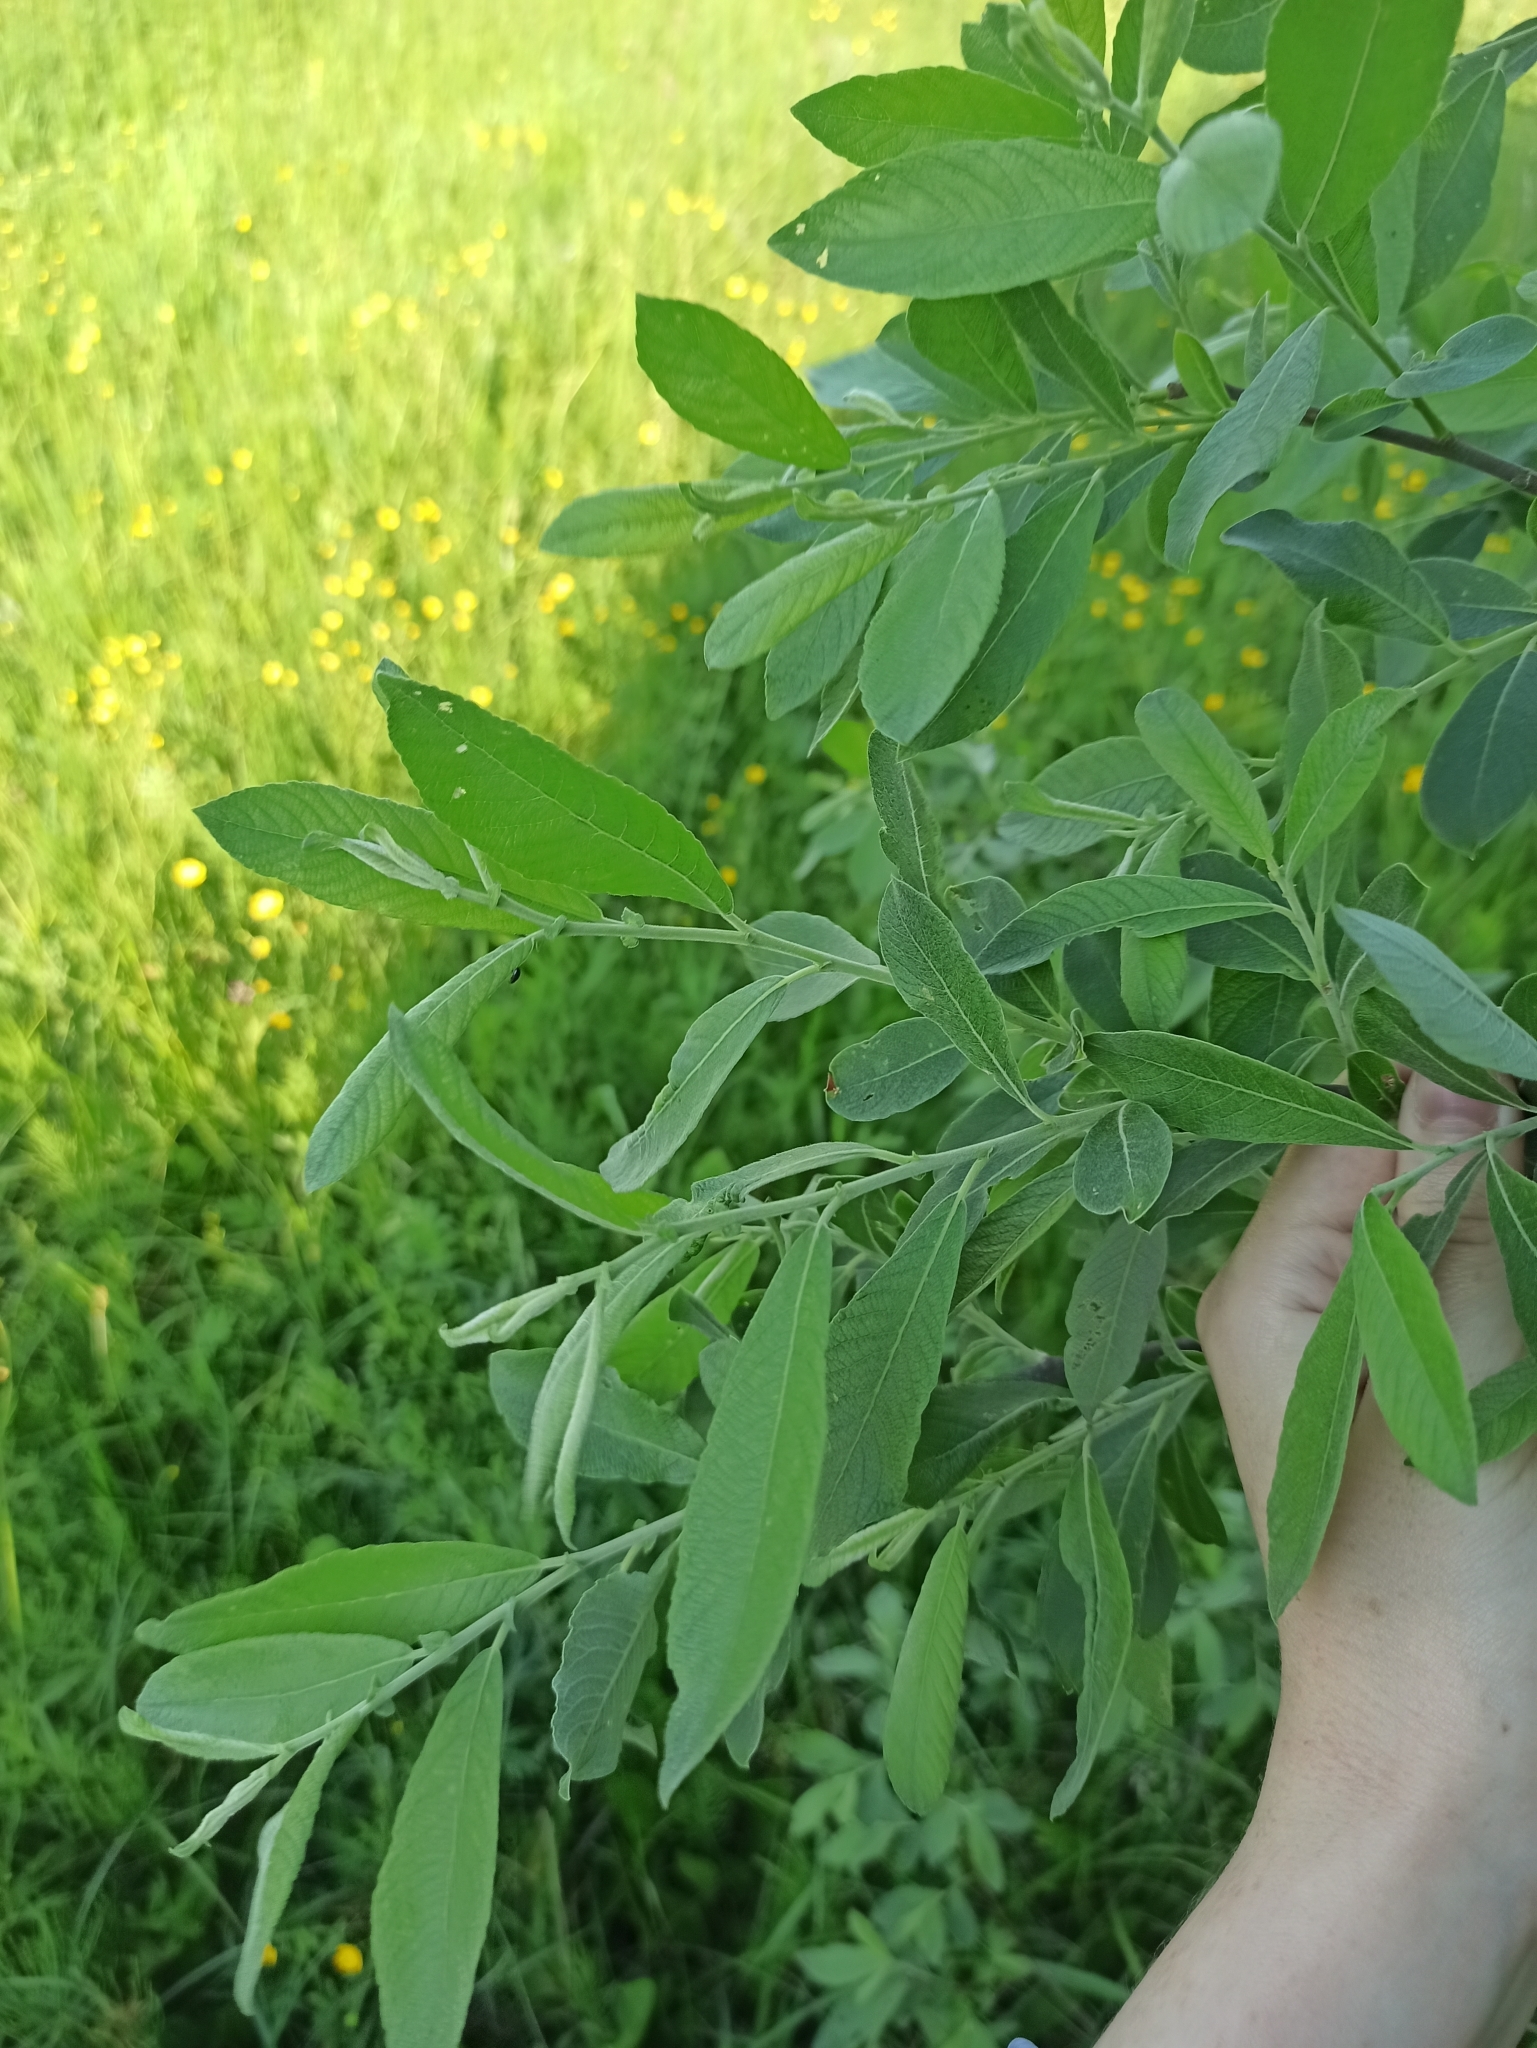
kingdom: Plantae
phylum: Tracheophyta
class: Magnoliopsida
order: Malpighiales
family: Salicaceae
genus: Salix
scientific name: Salix cinerea
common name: Common sallow
